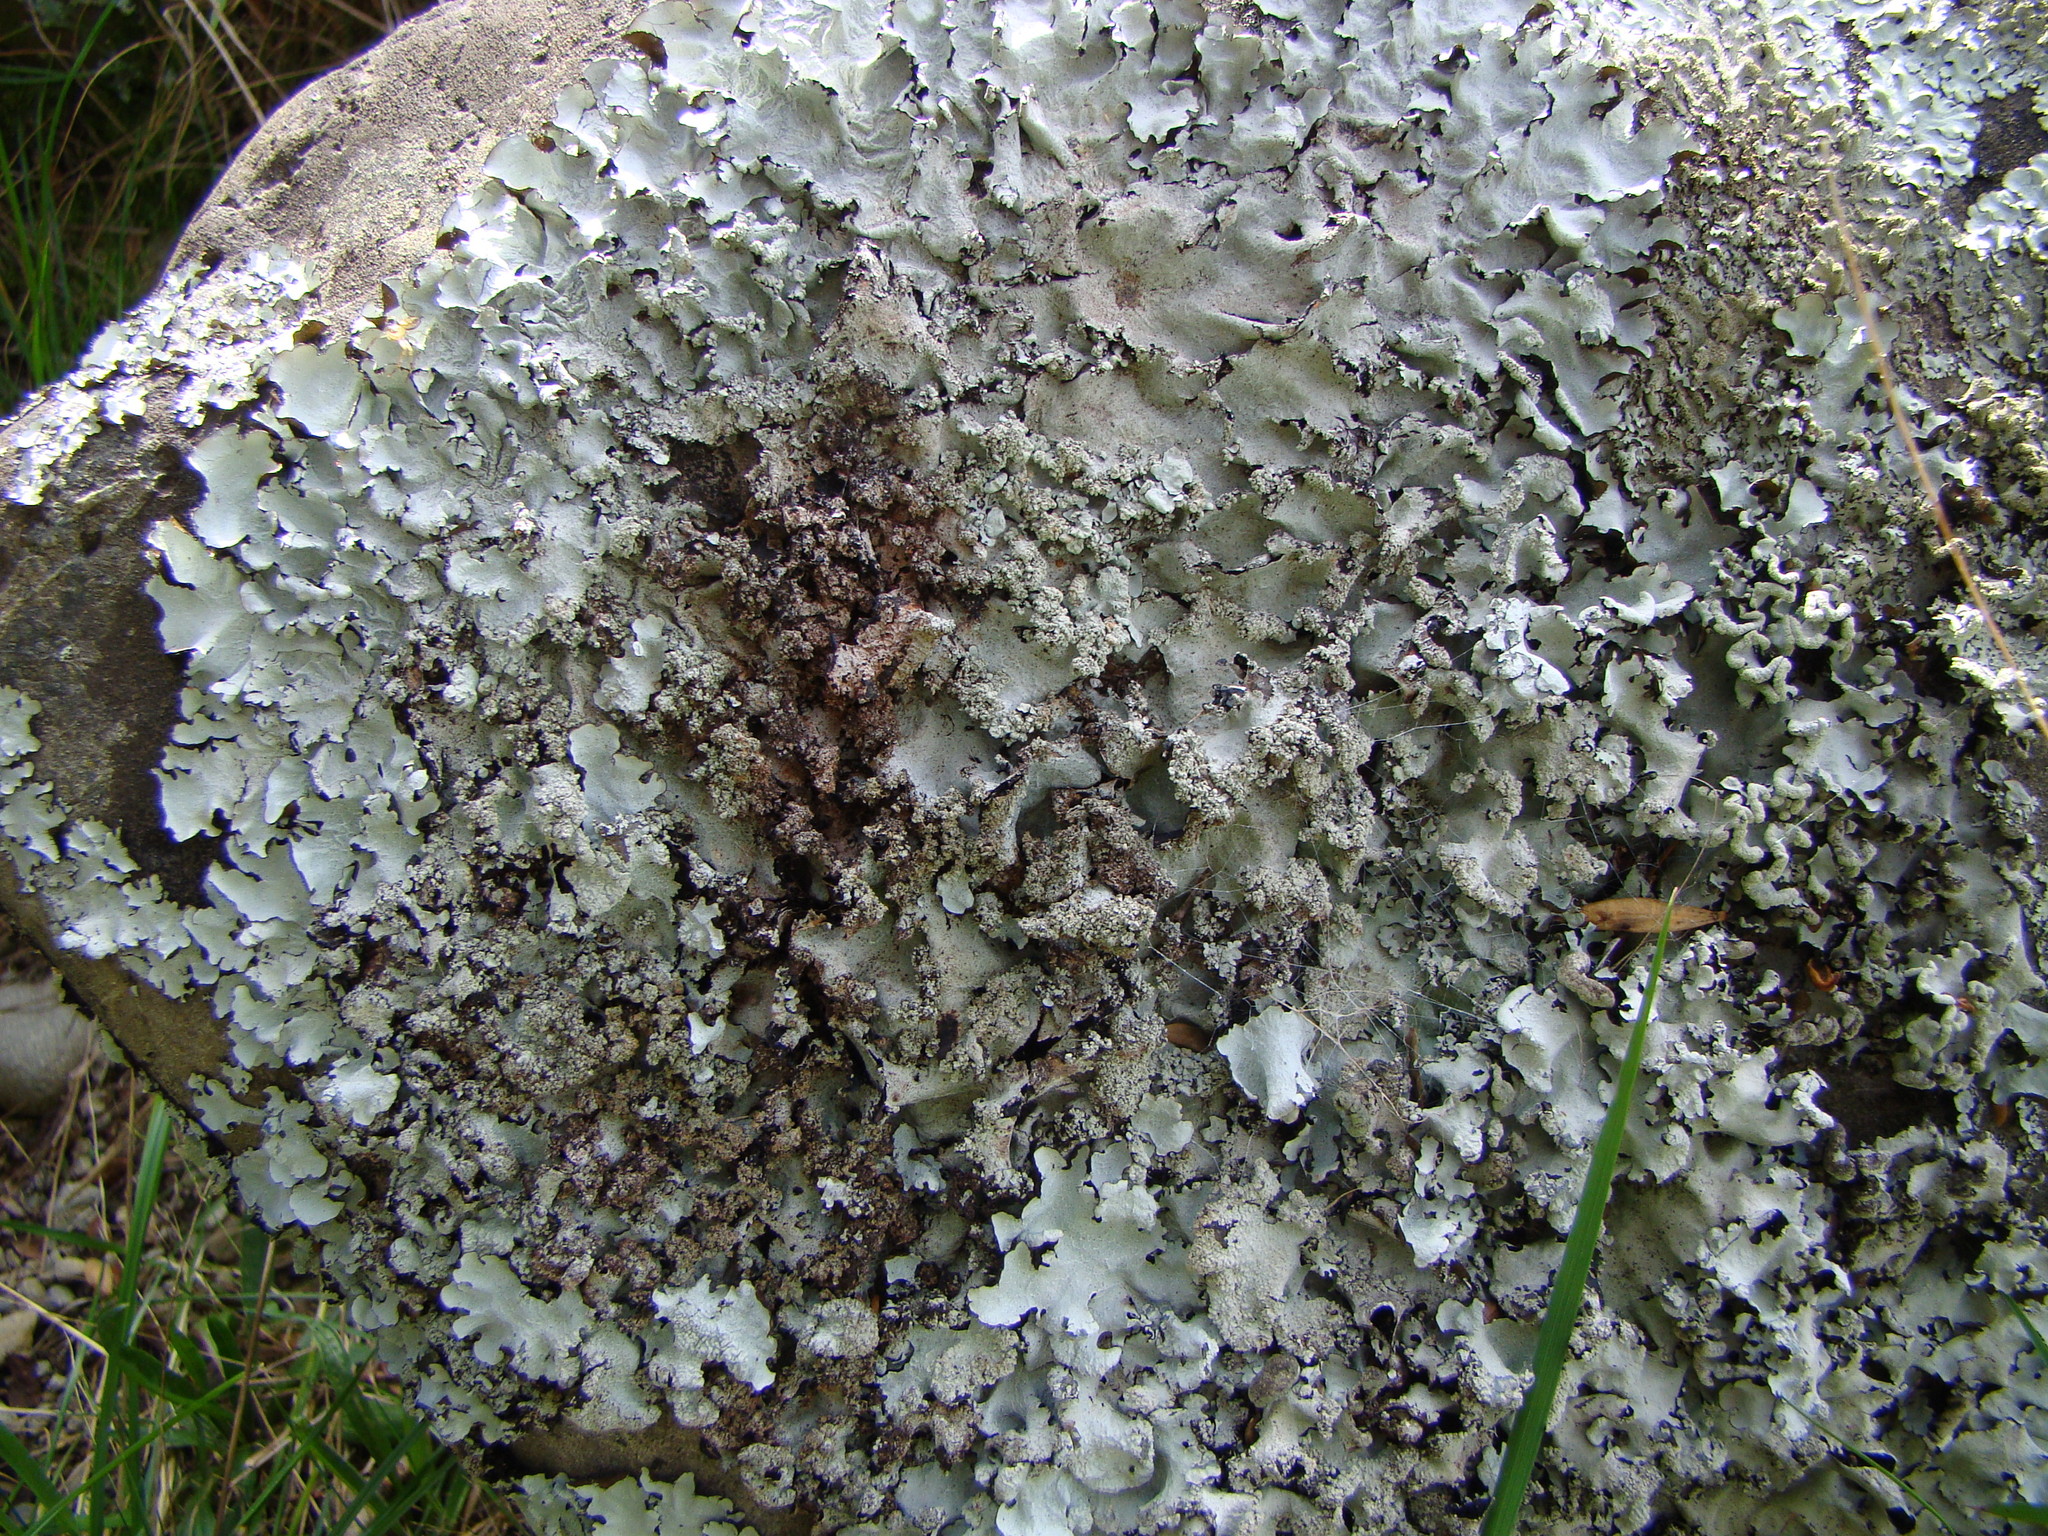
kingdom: Fungi
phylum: Ascomycota
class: Lecanoromycetes
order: Lecanorales
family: Parmeliaceae
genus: Parmotrema
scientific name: Parmotrema reticulatum
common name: Black sheet lichen
